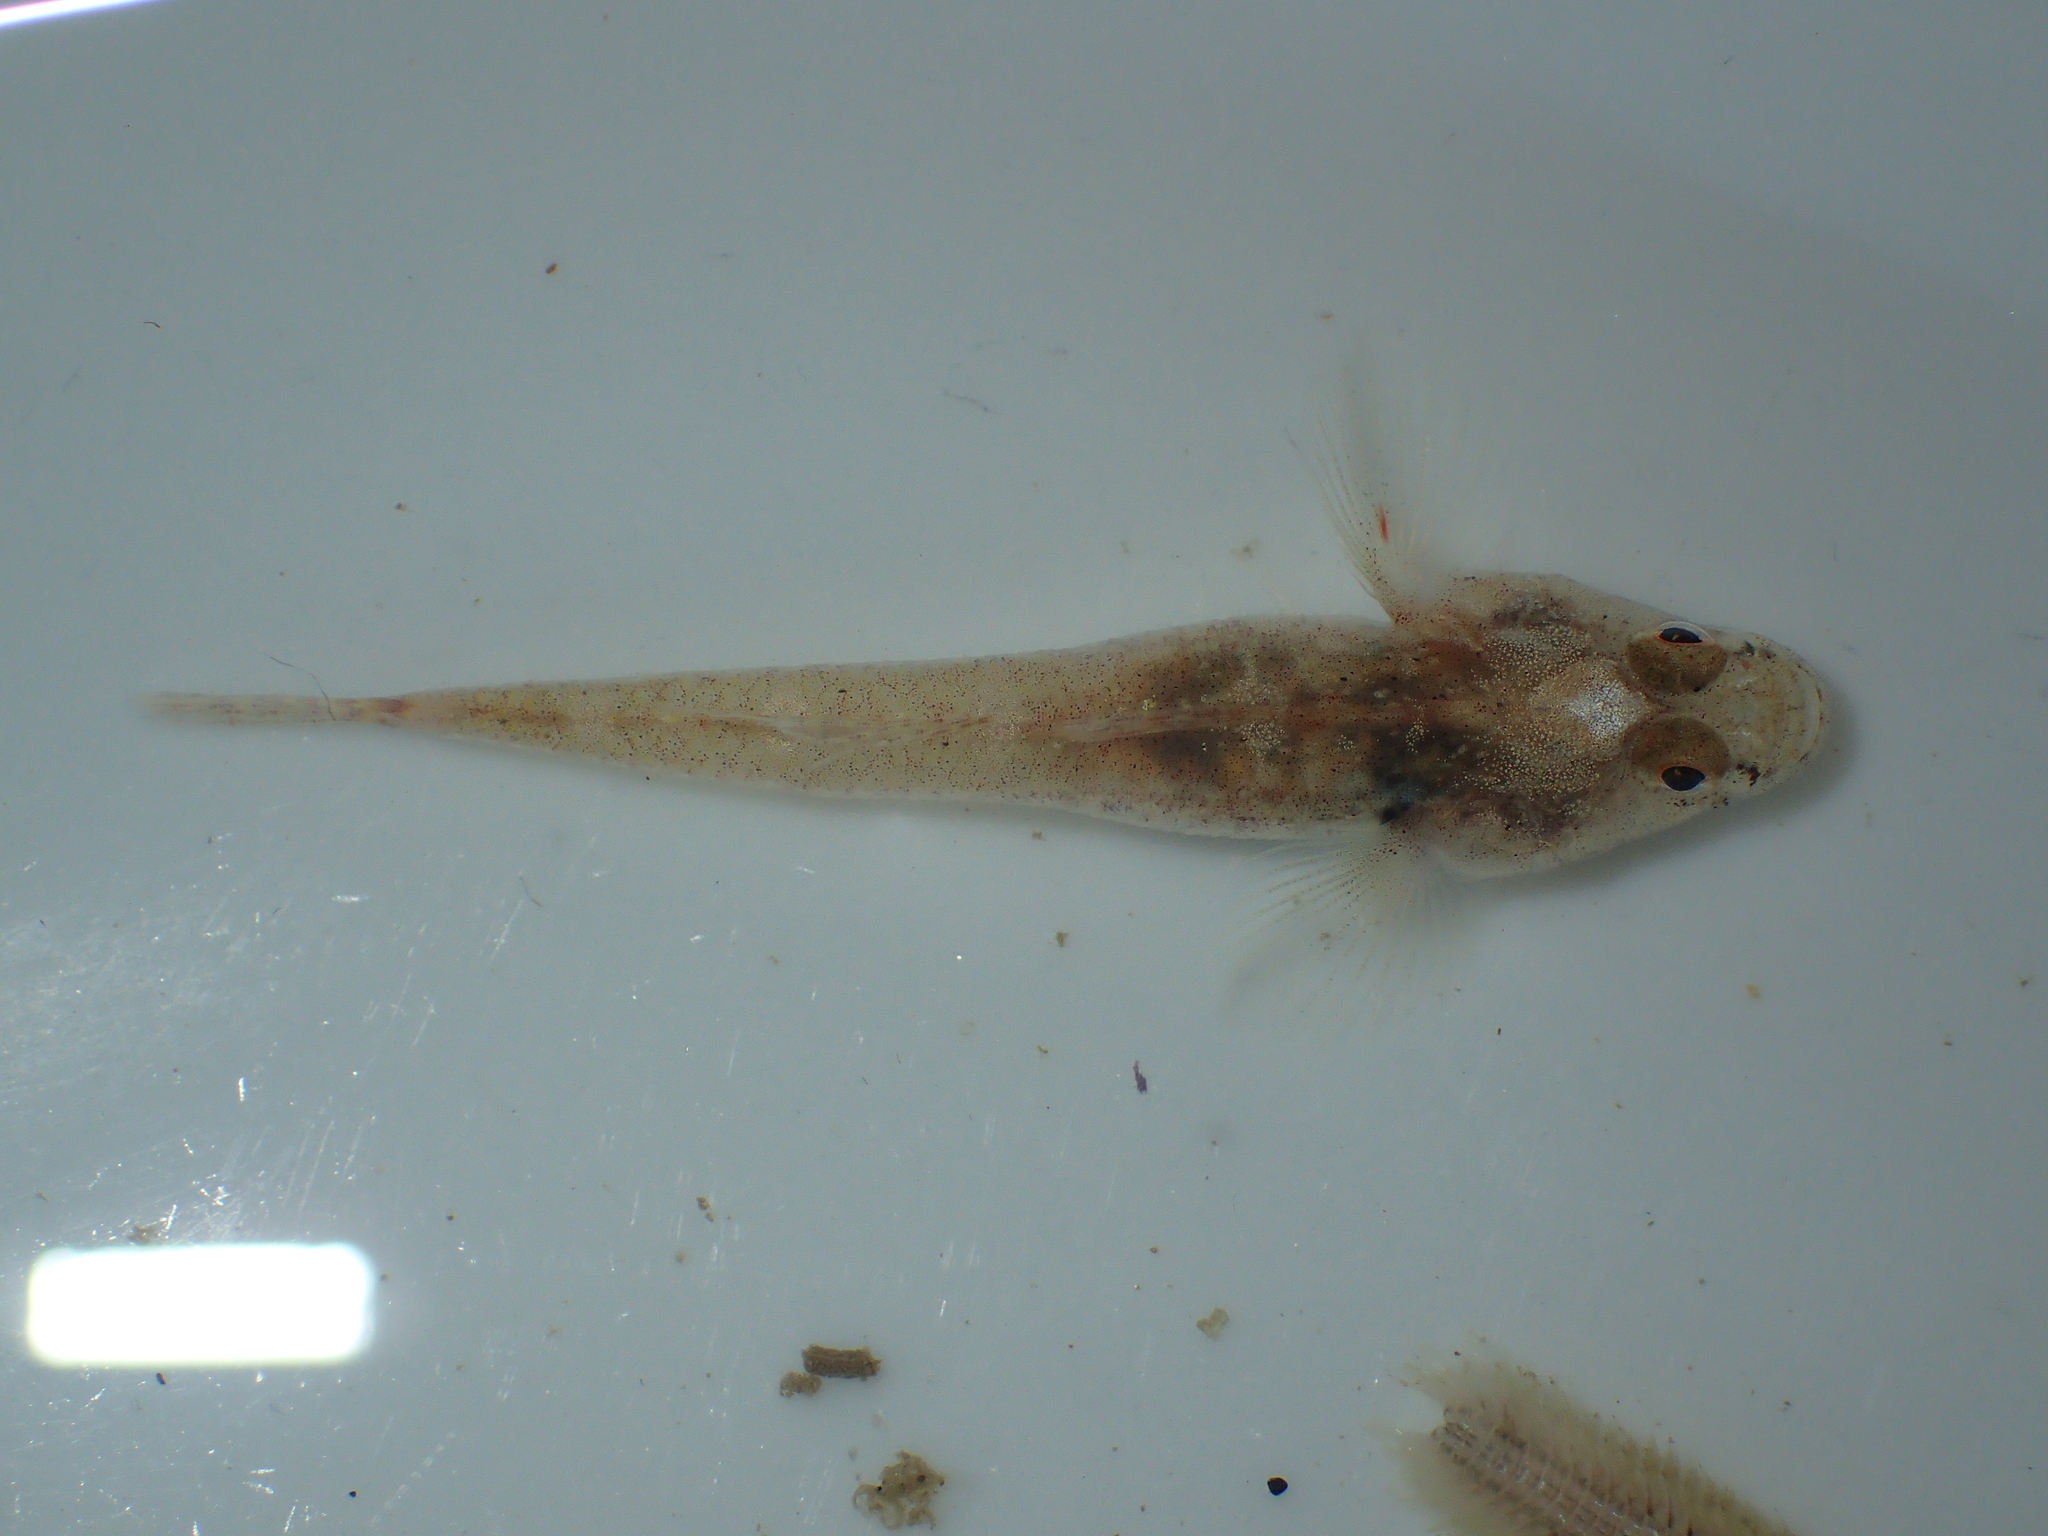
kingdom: Animalia
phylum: Chordata
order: Perciformes
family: Gobiidae
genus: Pomatoschistus
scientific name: Pomatoschistus microps
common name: Common goby
